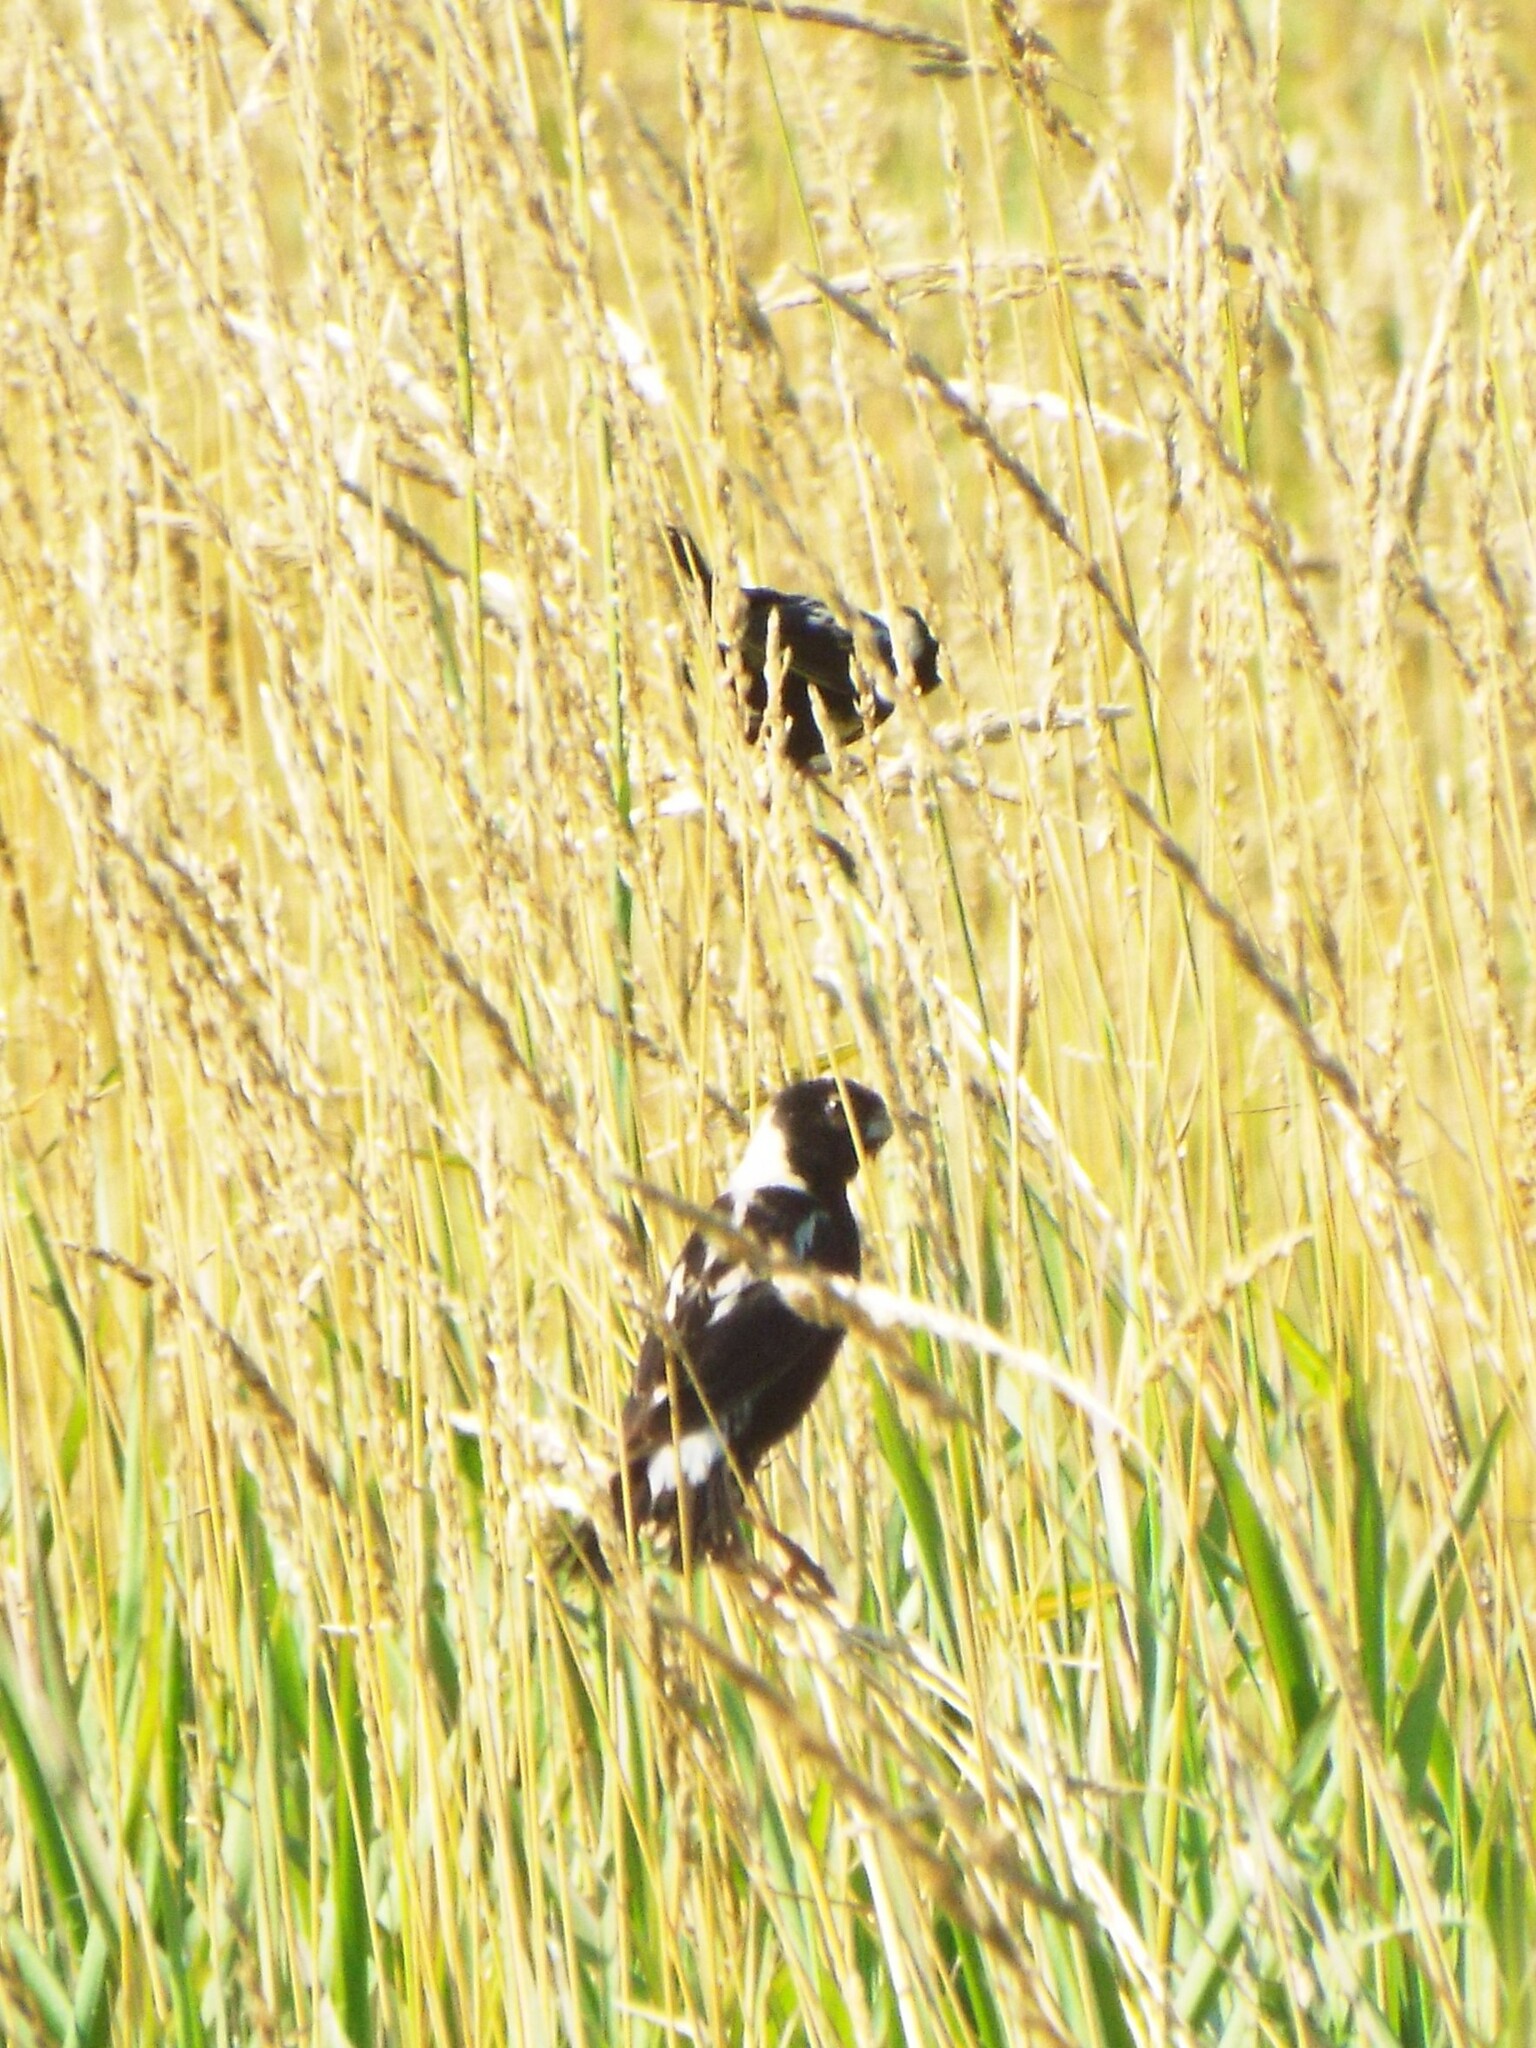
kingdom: Animalia
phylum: Chordata
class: Aves
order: Passeriformes
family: Icteridae
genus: Dolichonyx
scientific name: Dolichonyx oryzivorus
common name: Bobolink
